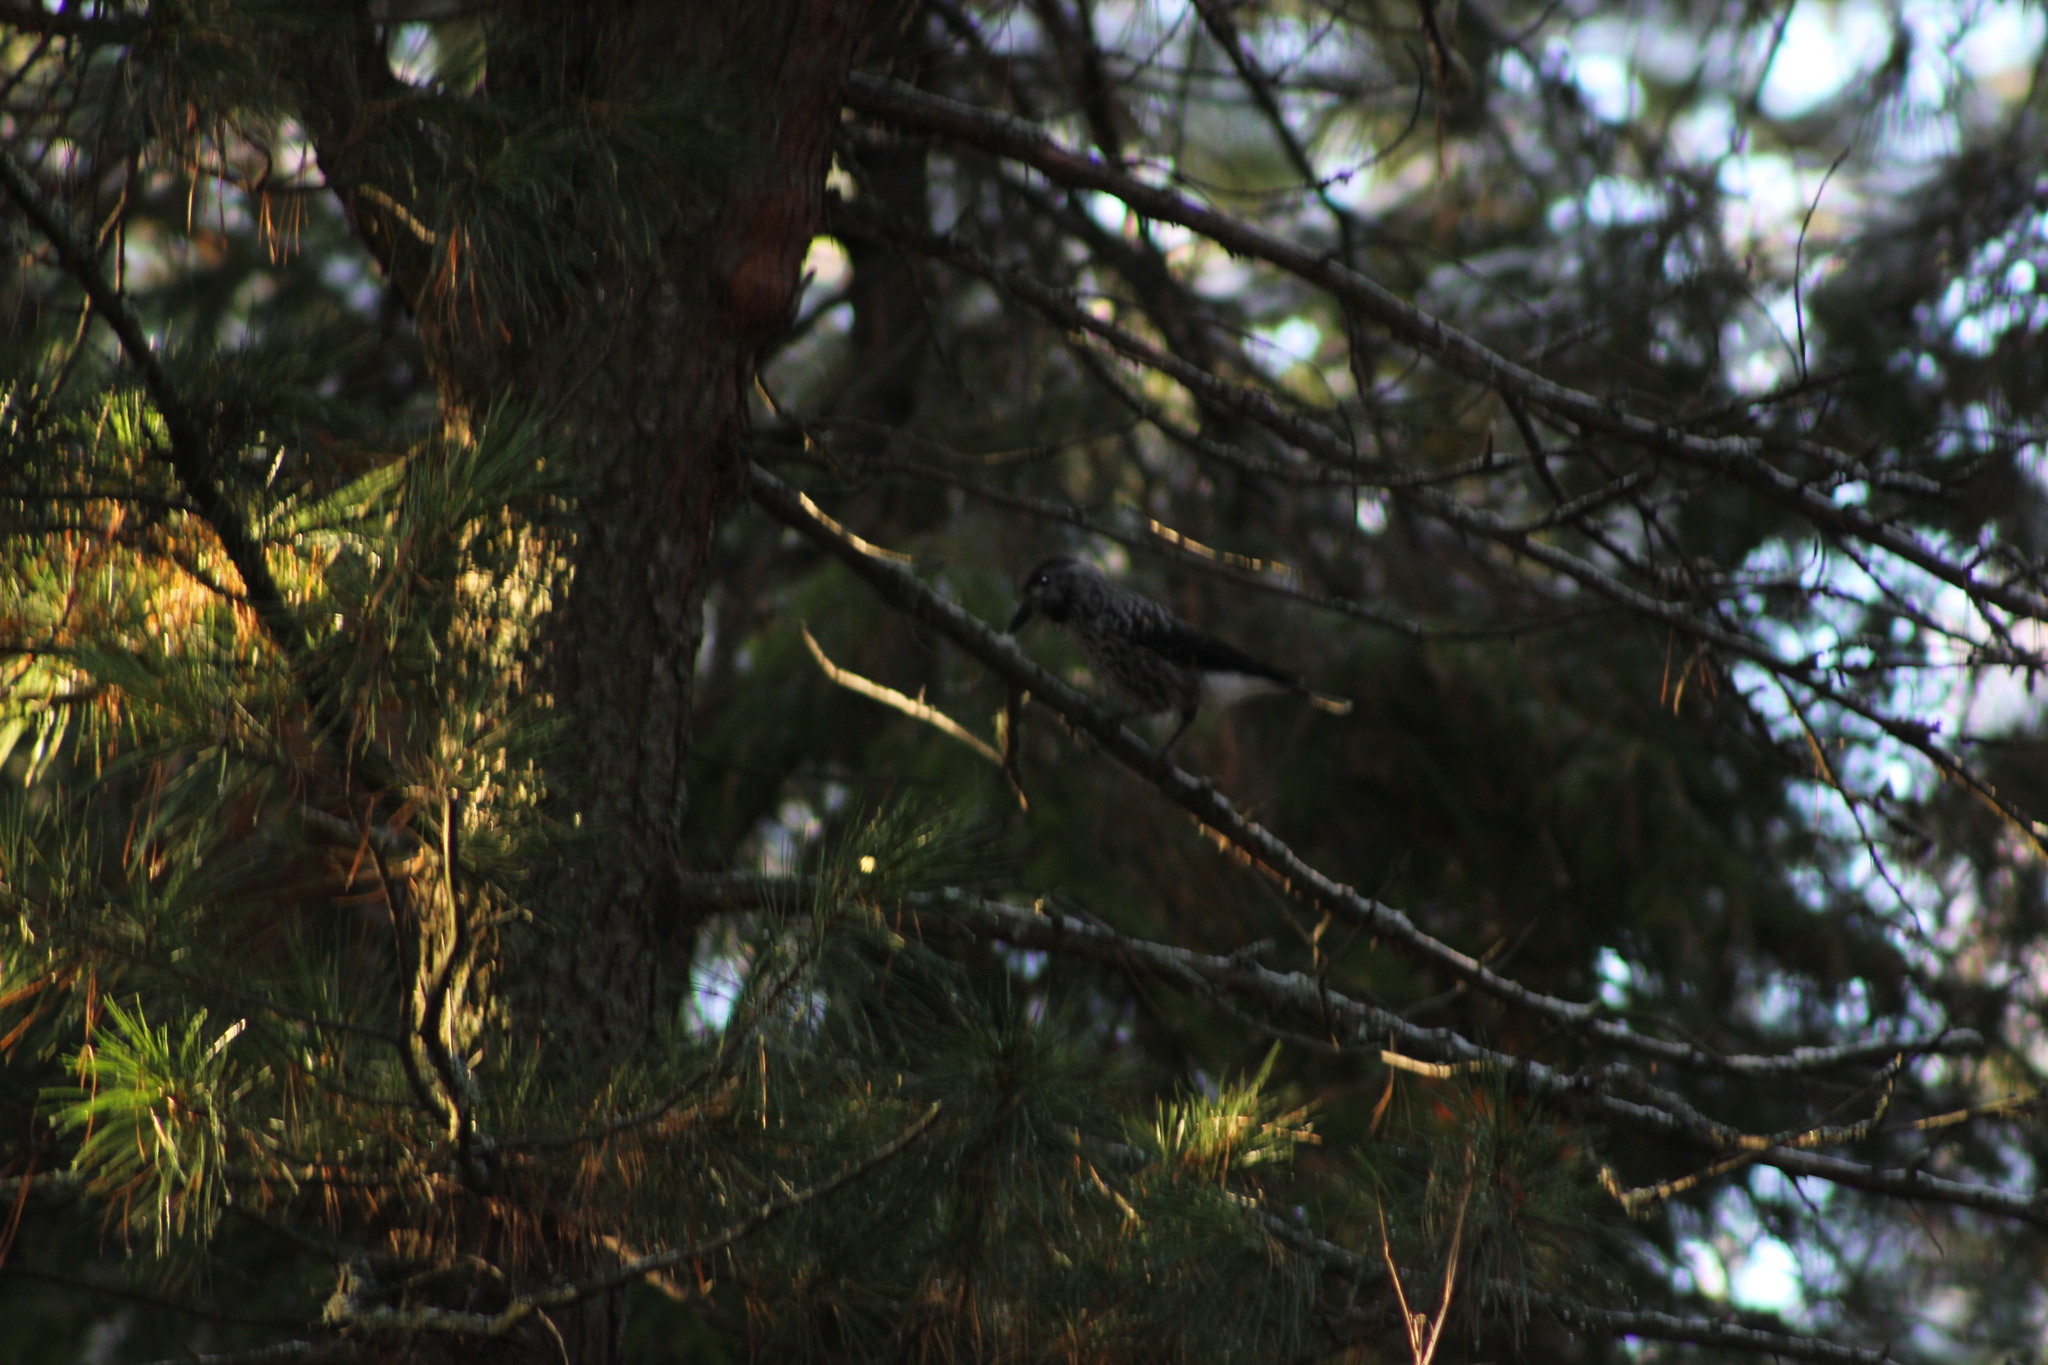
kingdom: Animalia
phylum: Chordata
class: Aves
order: Passeriformes
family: Corvidae
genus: Nucifraga
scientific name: Nucifraga caryocatactes
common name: Spotted nutcracker
